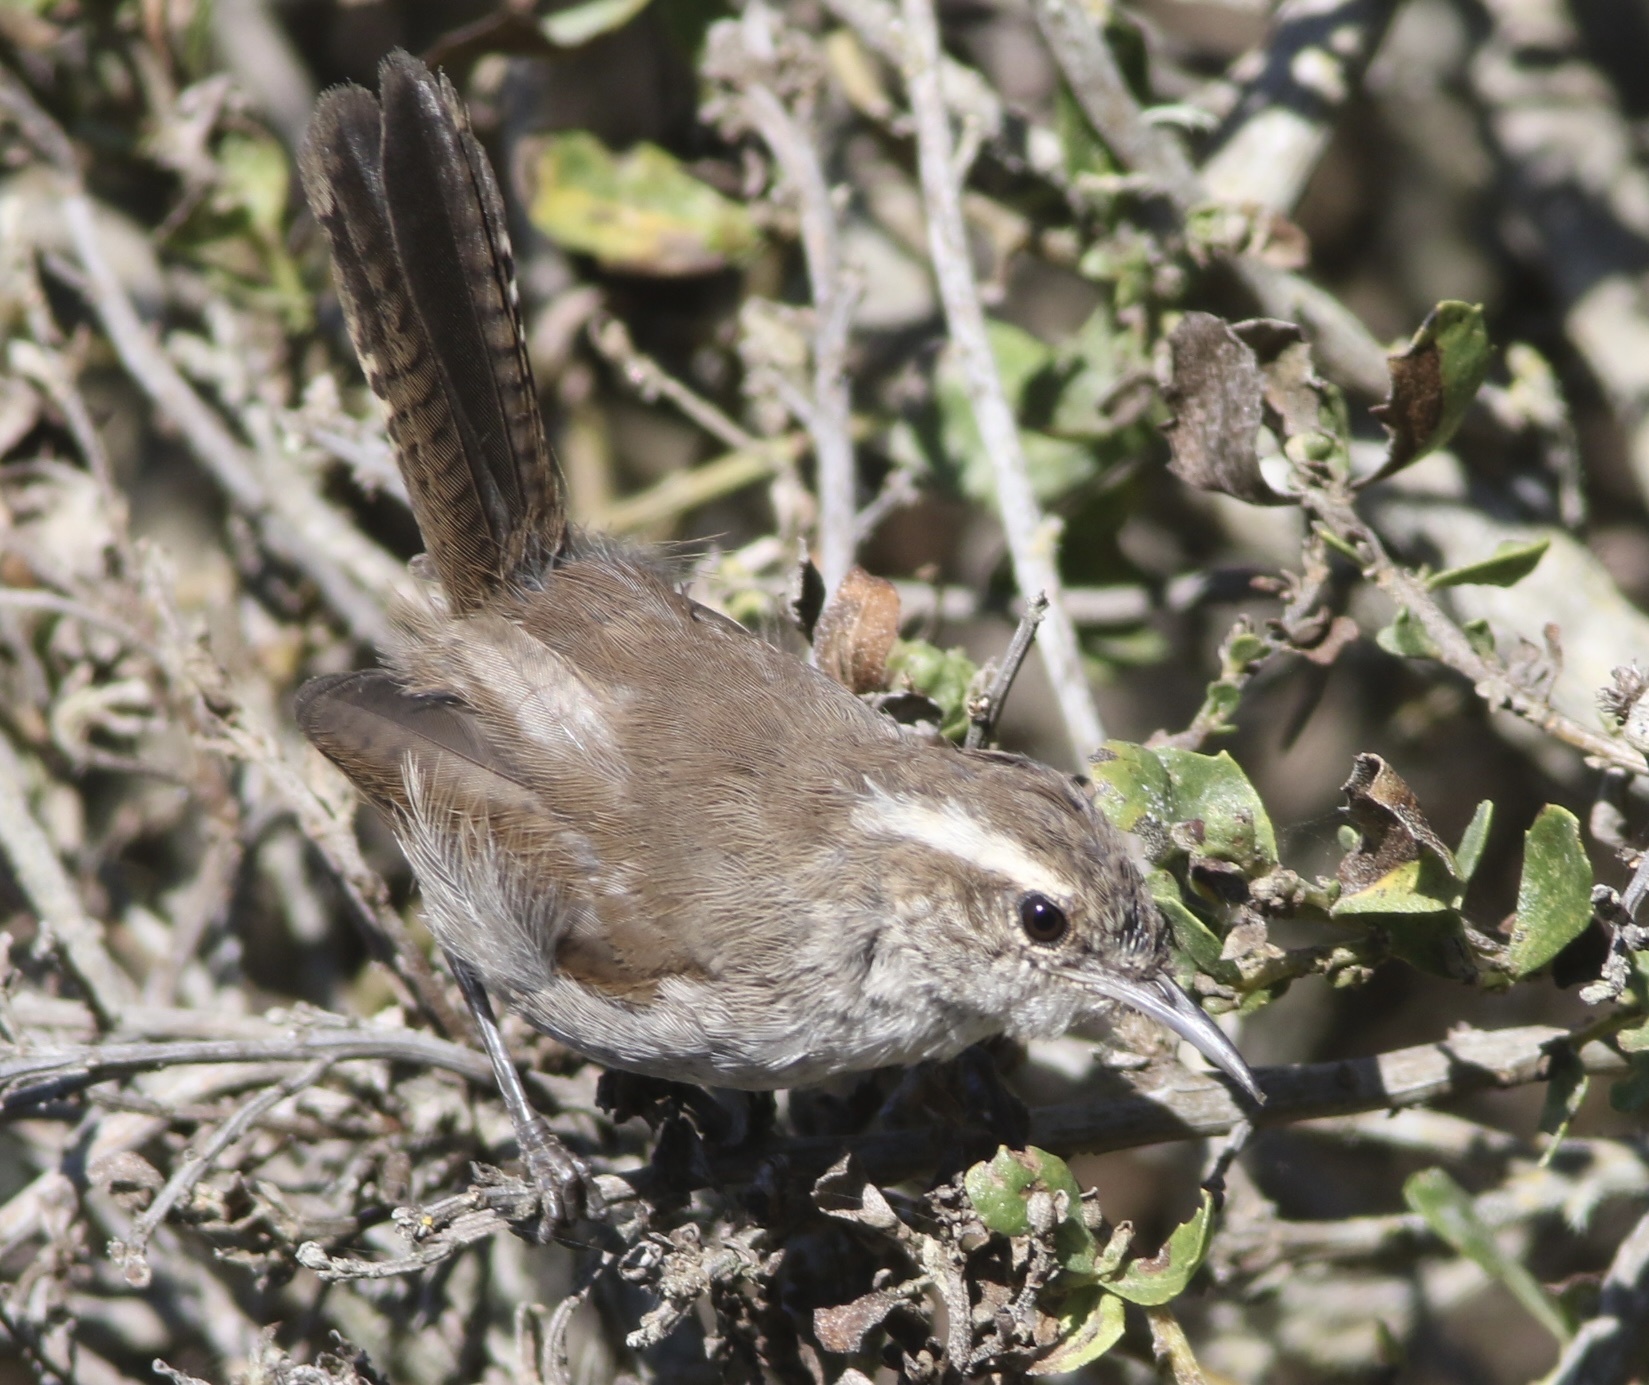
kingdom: Animalia
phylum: Chordata
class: Aves
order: Passeriformes
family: Troglodytidae
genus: Thryomanes
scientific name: Thryomanes bewickii
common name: Bewick's wren
